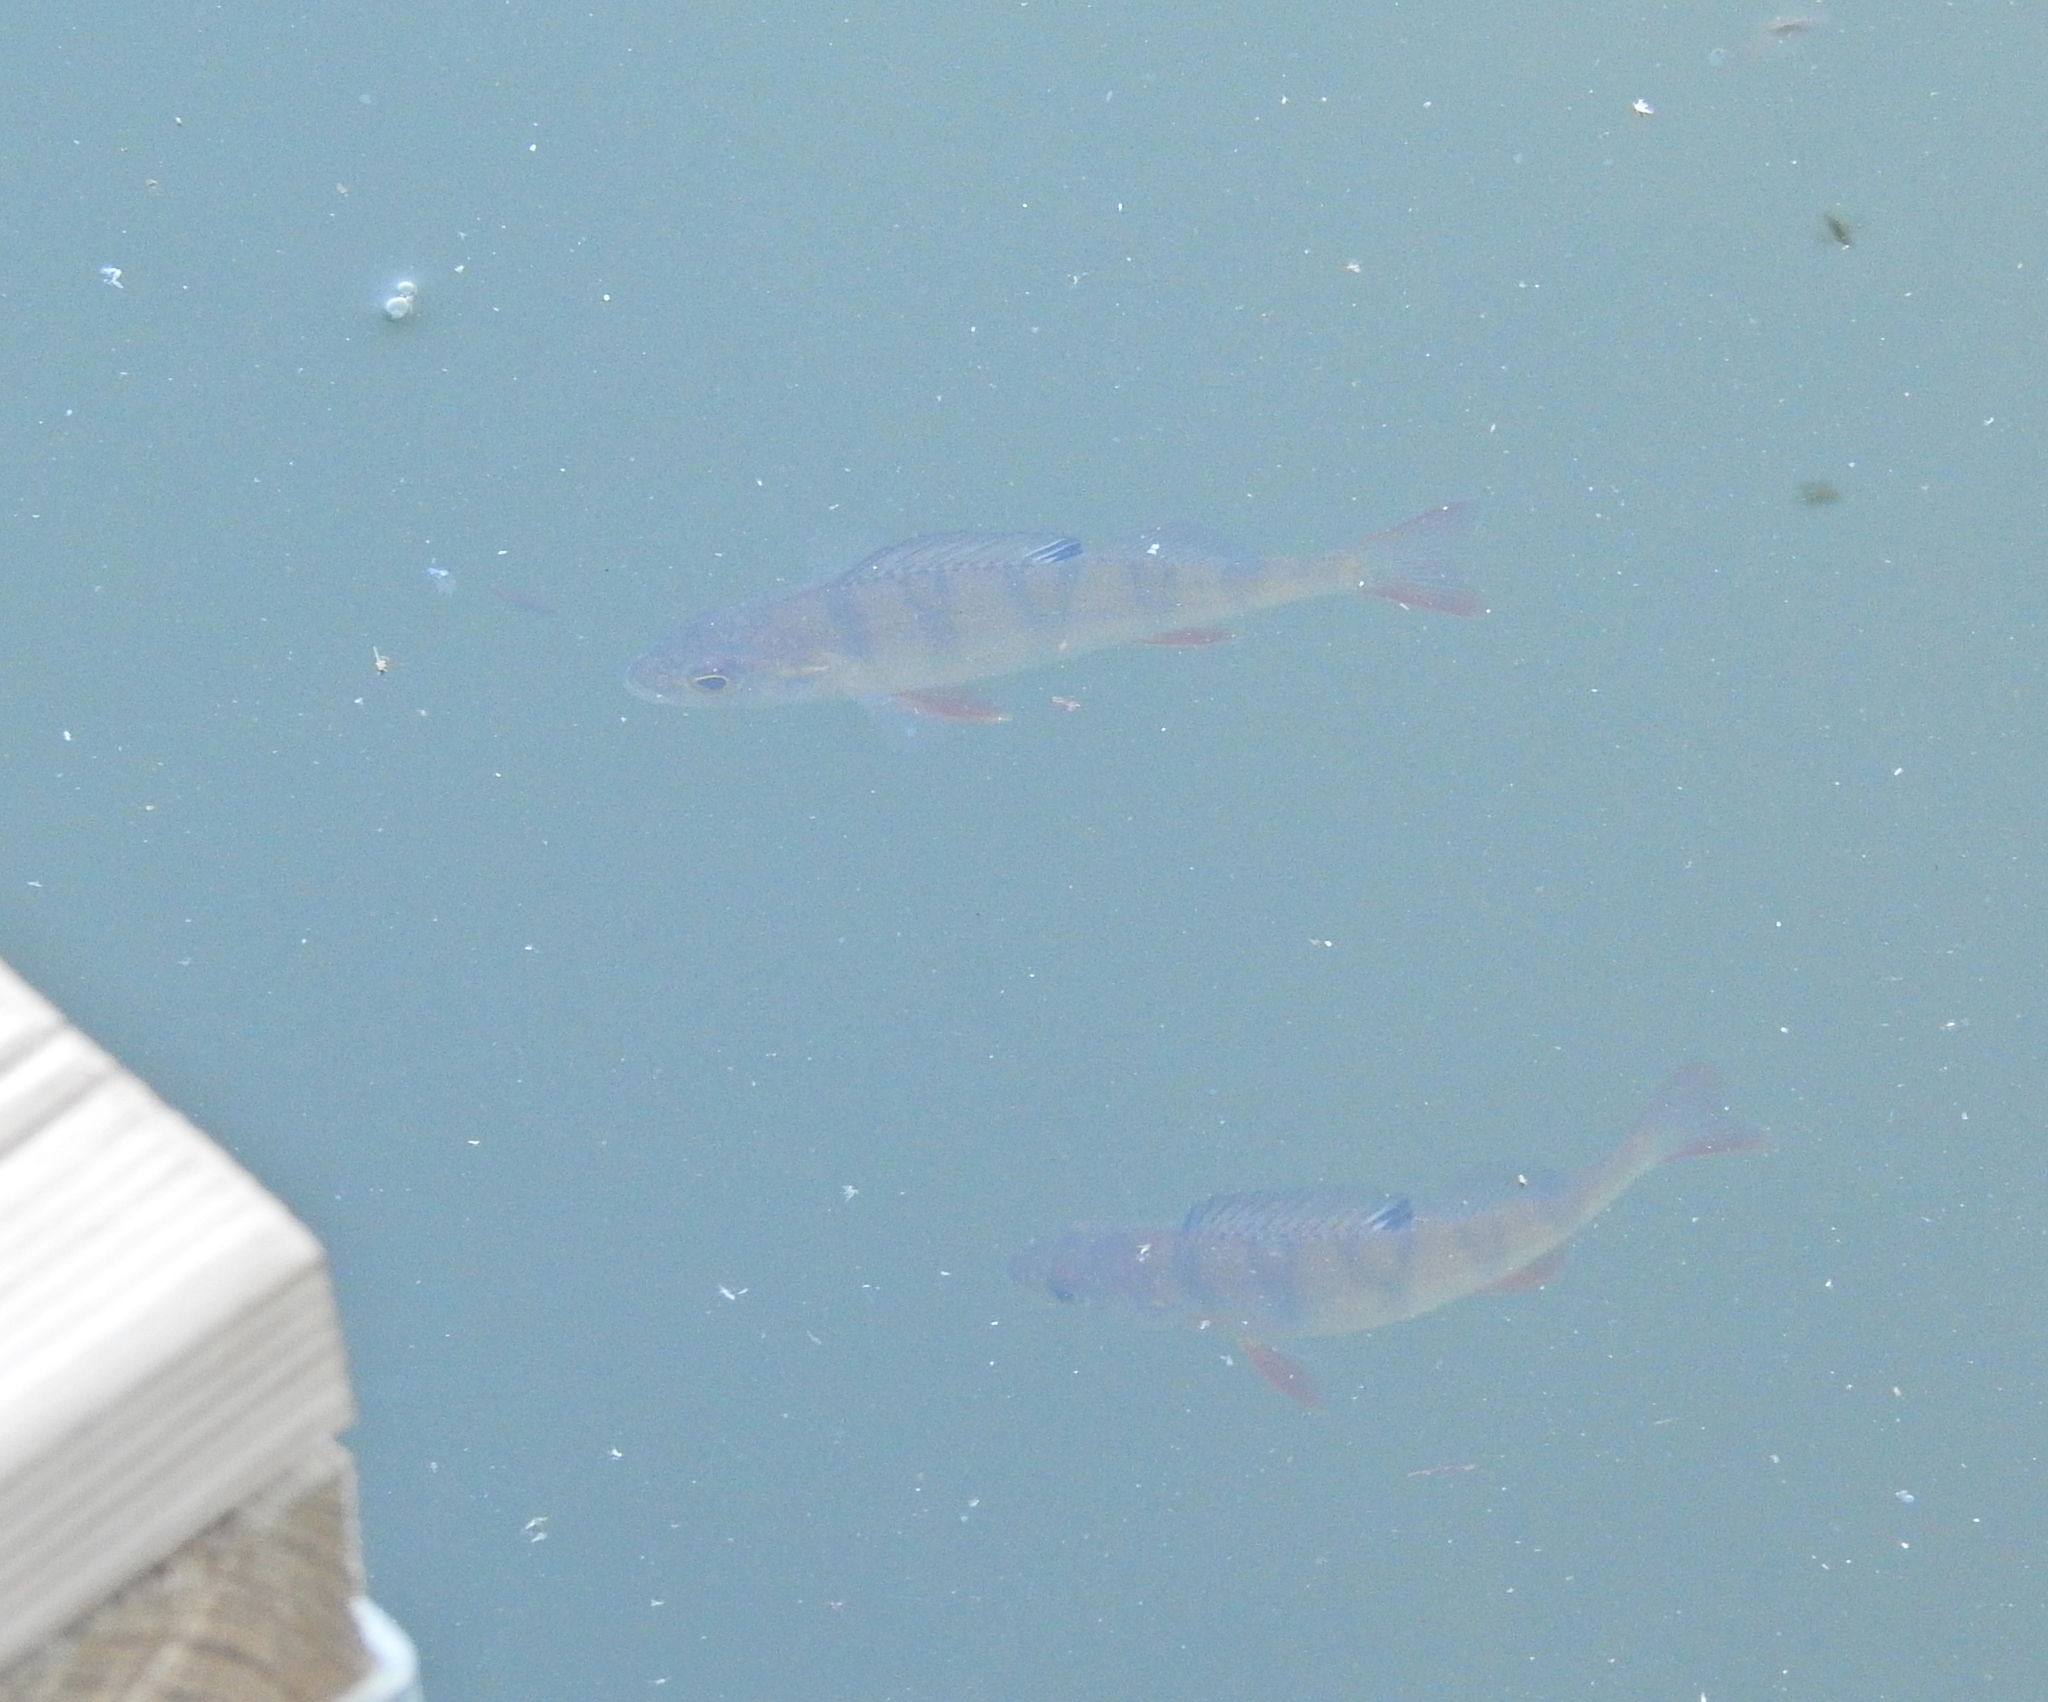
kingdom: Animalia
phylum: Chordata
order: Perciformes
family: Percidae
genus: Perca
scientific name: Perca fluviatilis
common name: Perch
